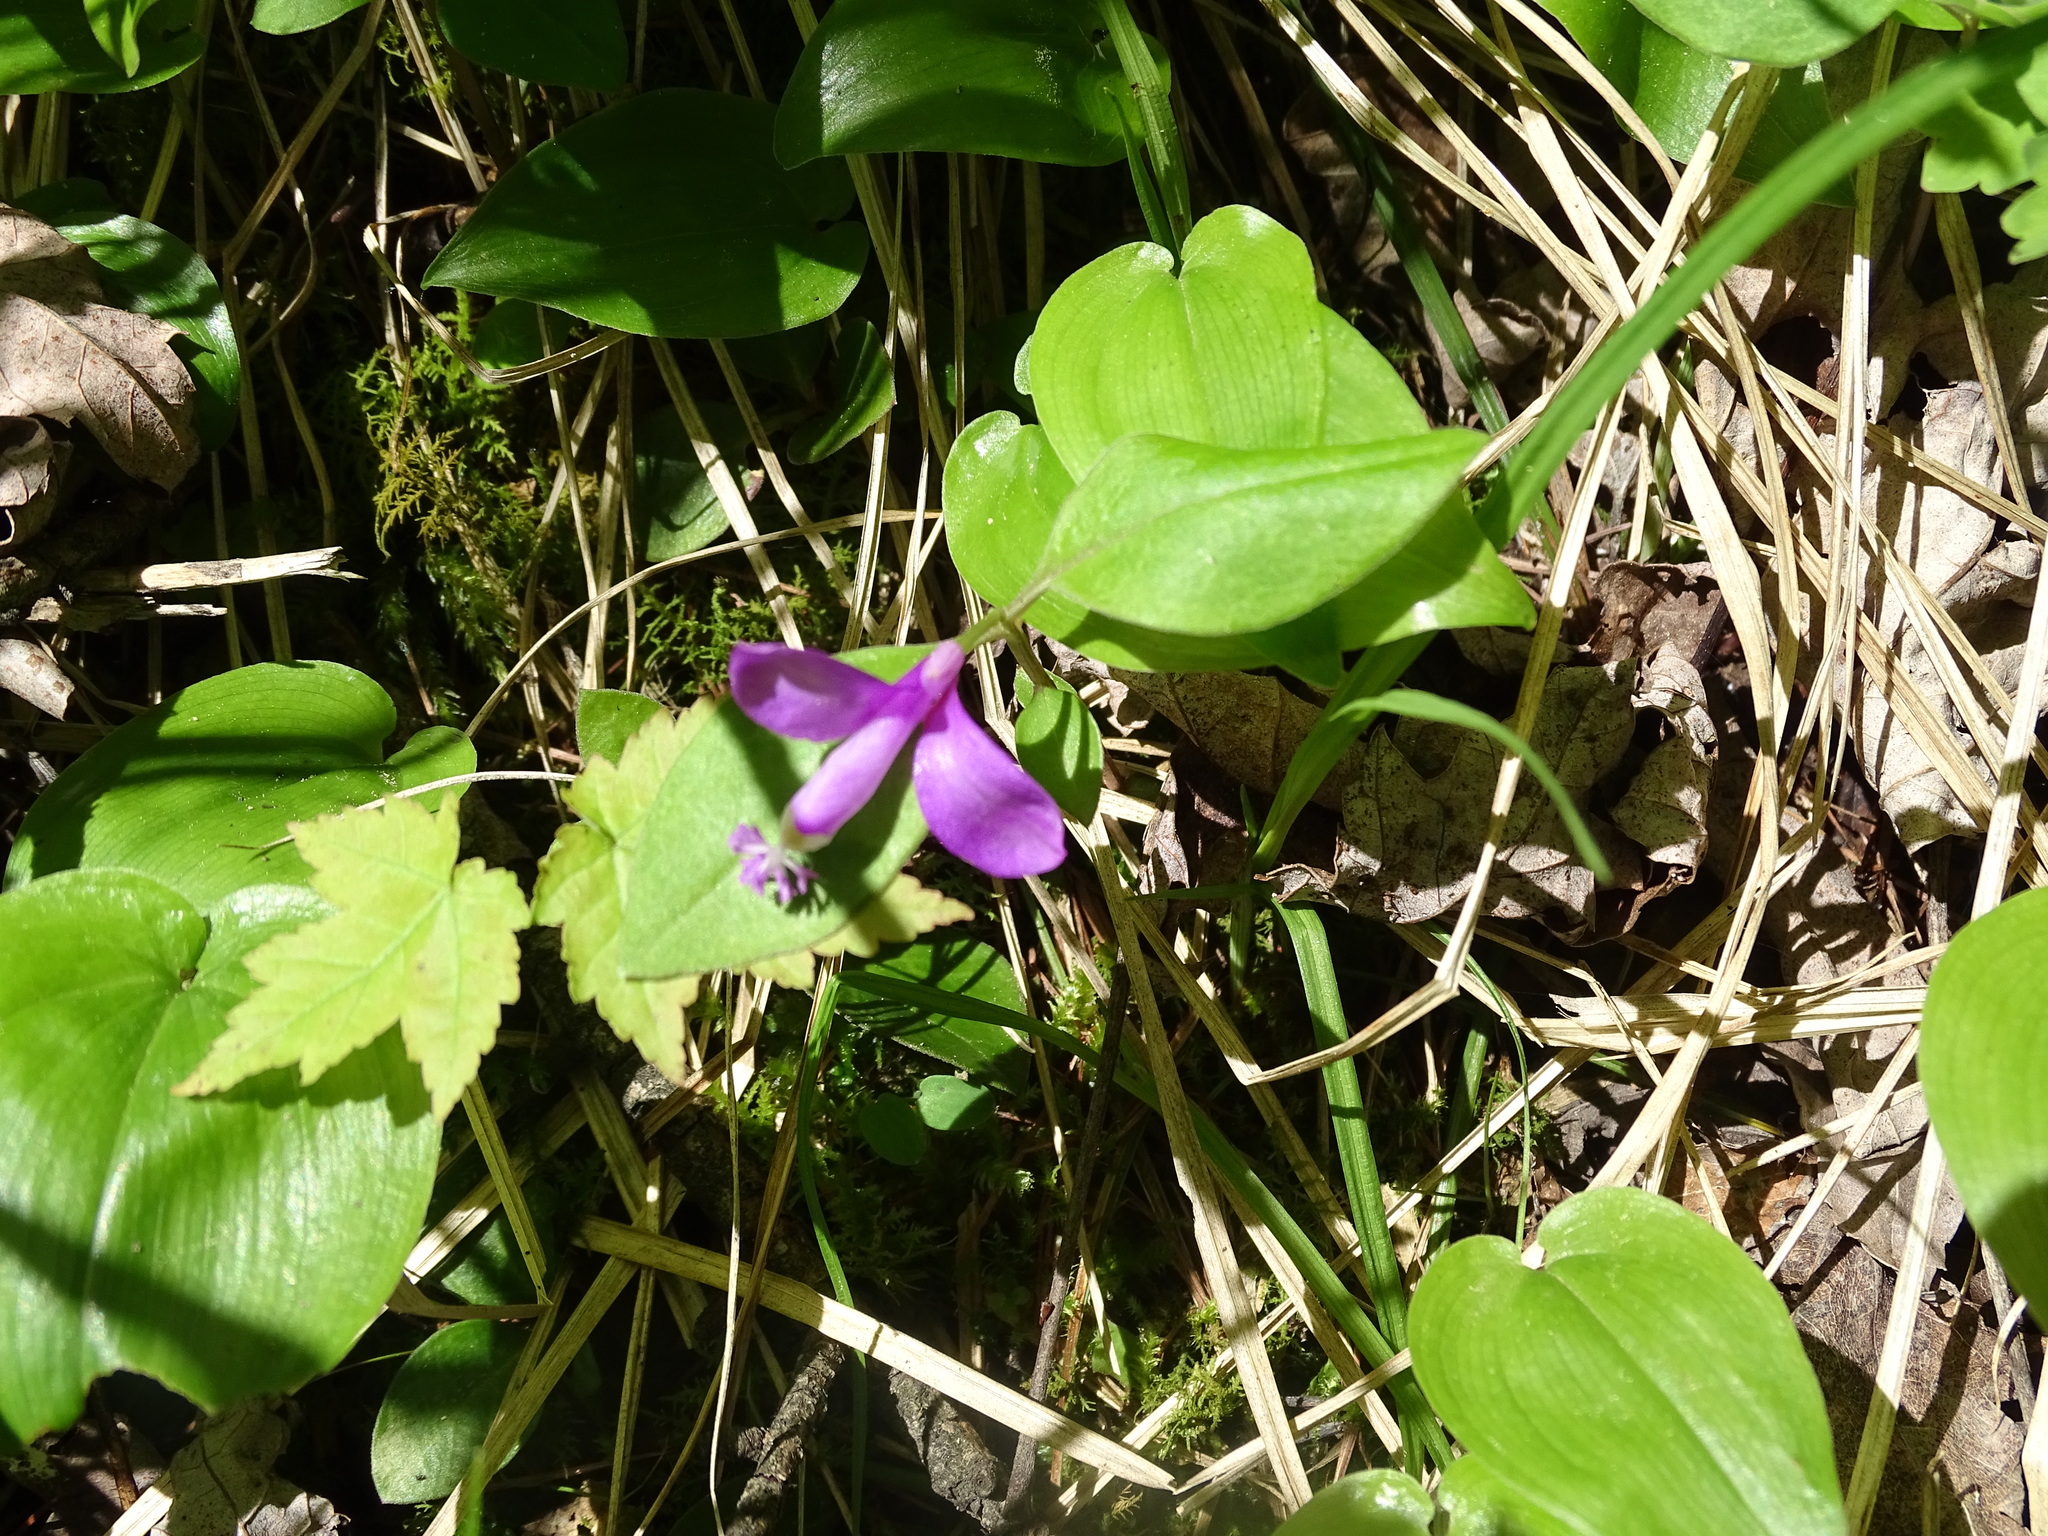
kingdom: Plantae
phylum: Tracheophyta
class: Magnoliopsida
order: Fabales
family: Polygalaceae
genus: Polygaloides
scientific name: Polygaloides paucifolia
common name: Bird-on-the-wing
